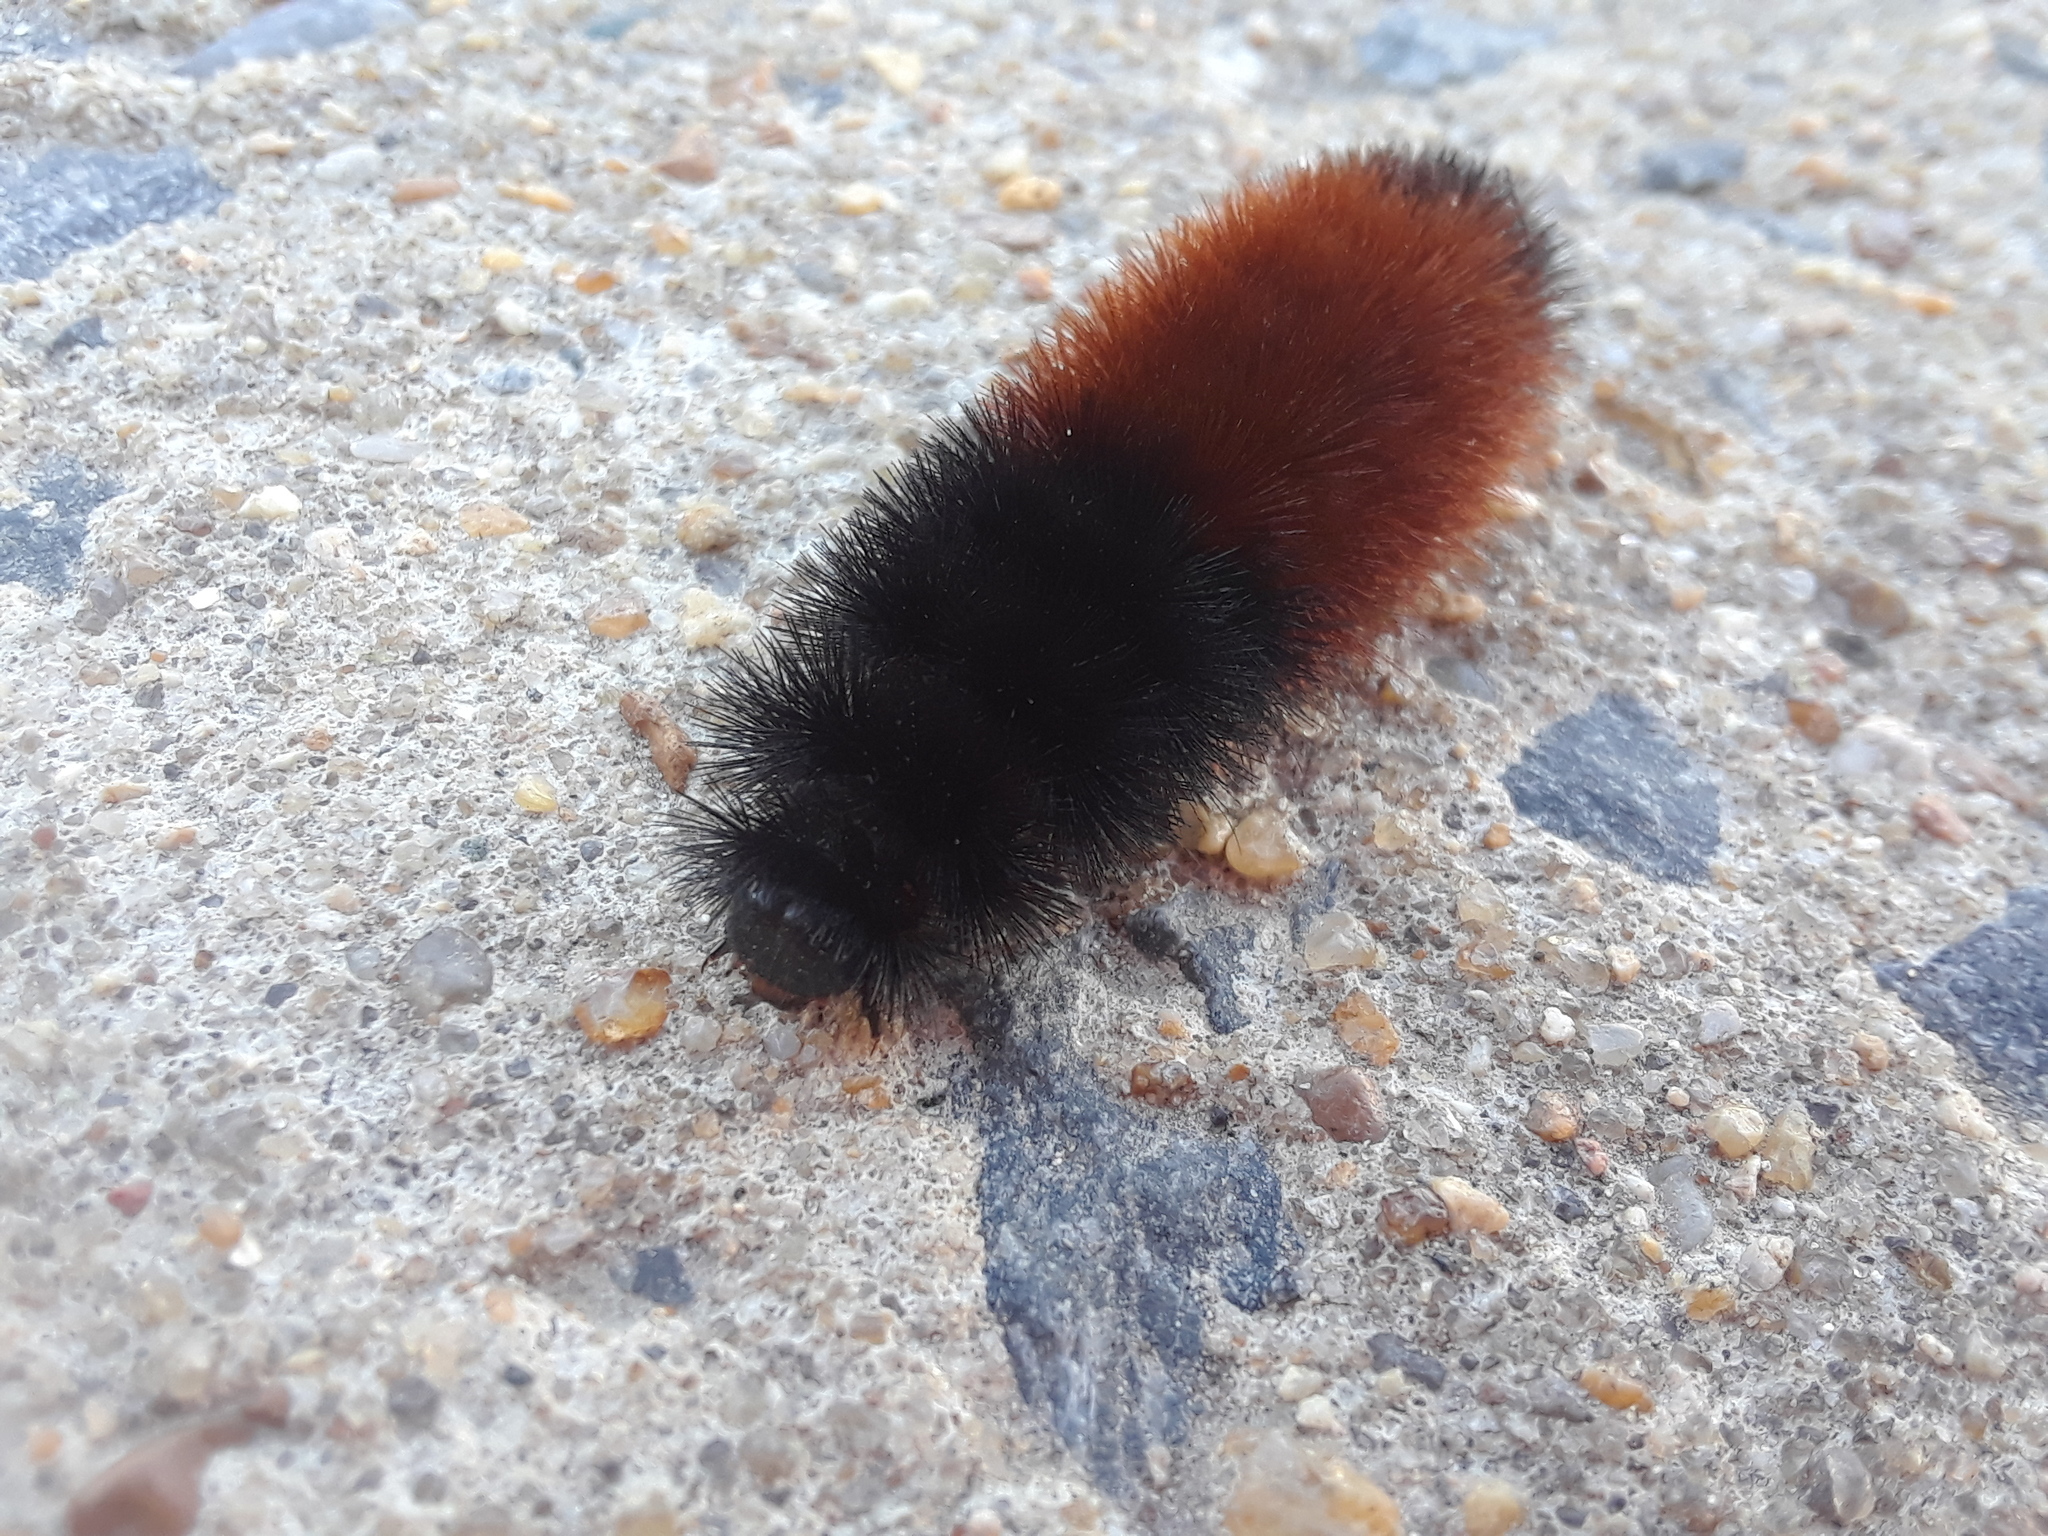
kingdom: Animalia
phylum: Arthropoda
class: Insecta
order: Lepidoptera
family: Erebidae
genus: Pyrrharctia
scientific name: Pyrrharctia isabella
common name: Isabella tiger moth
